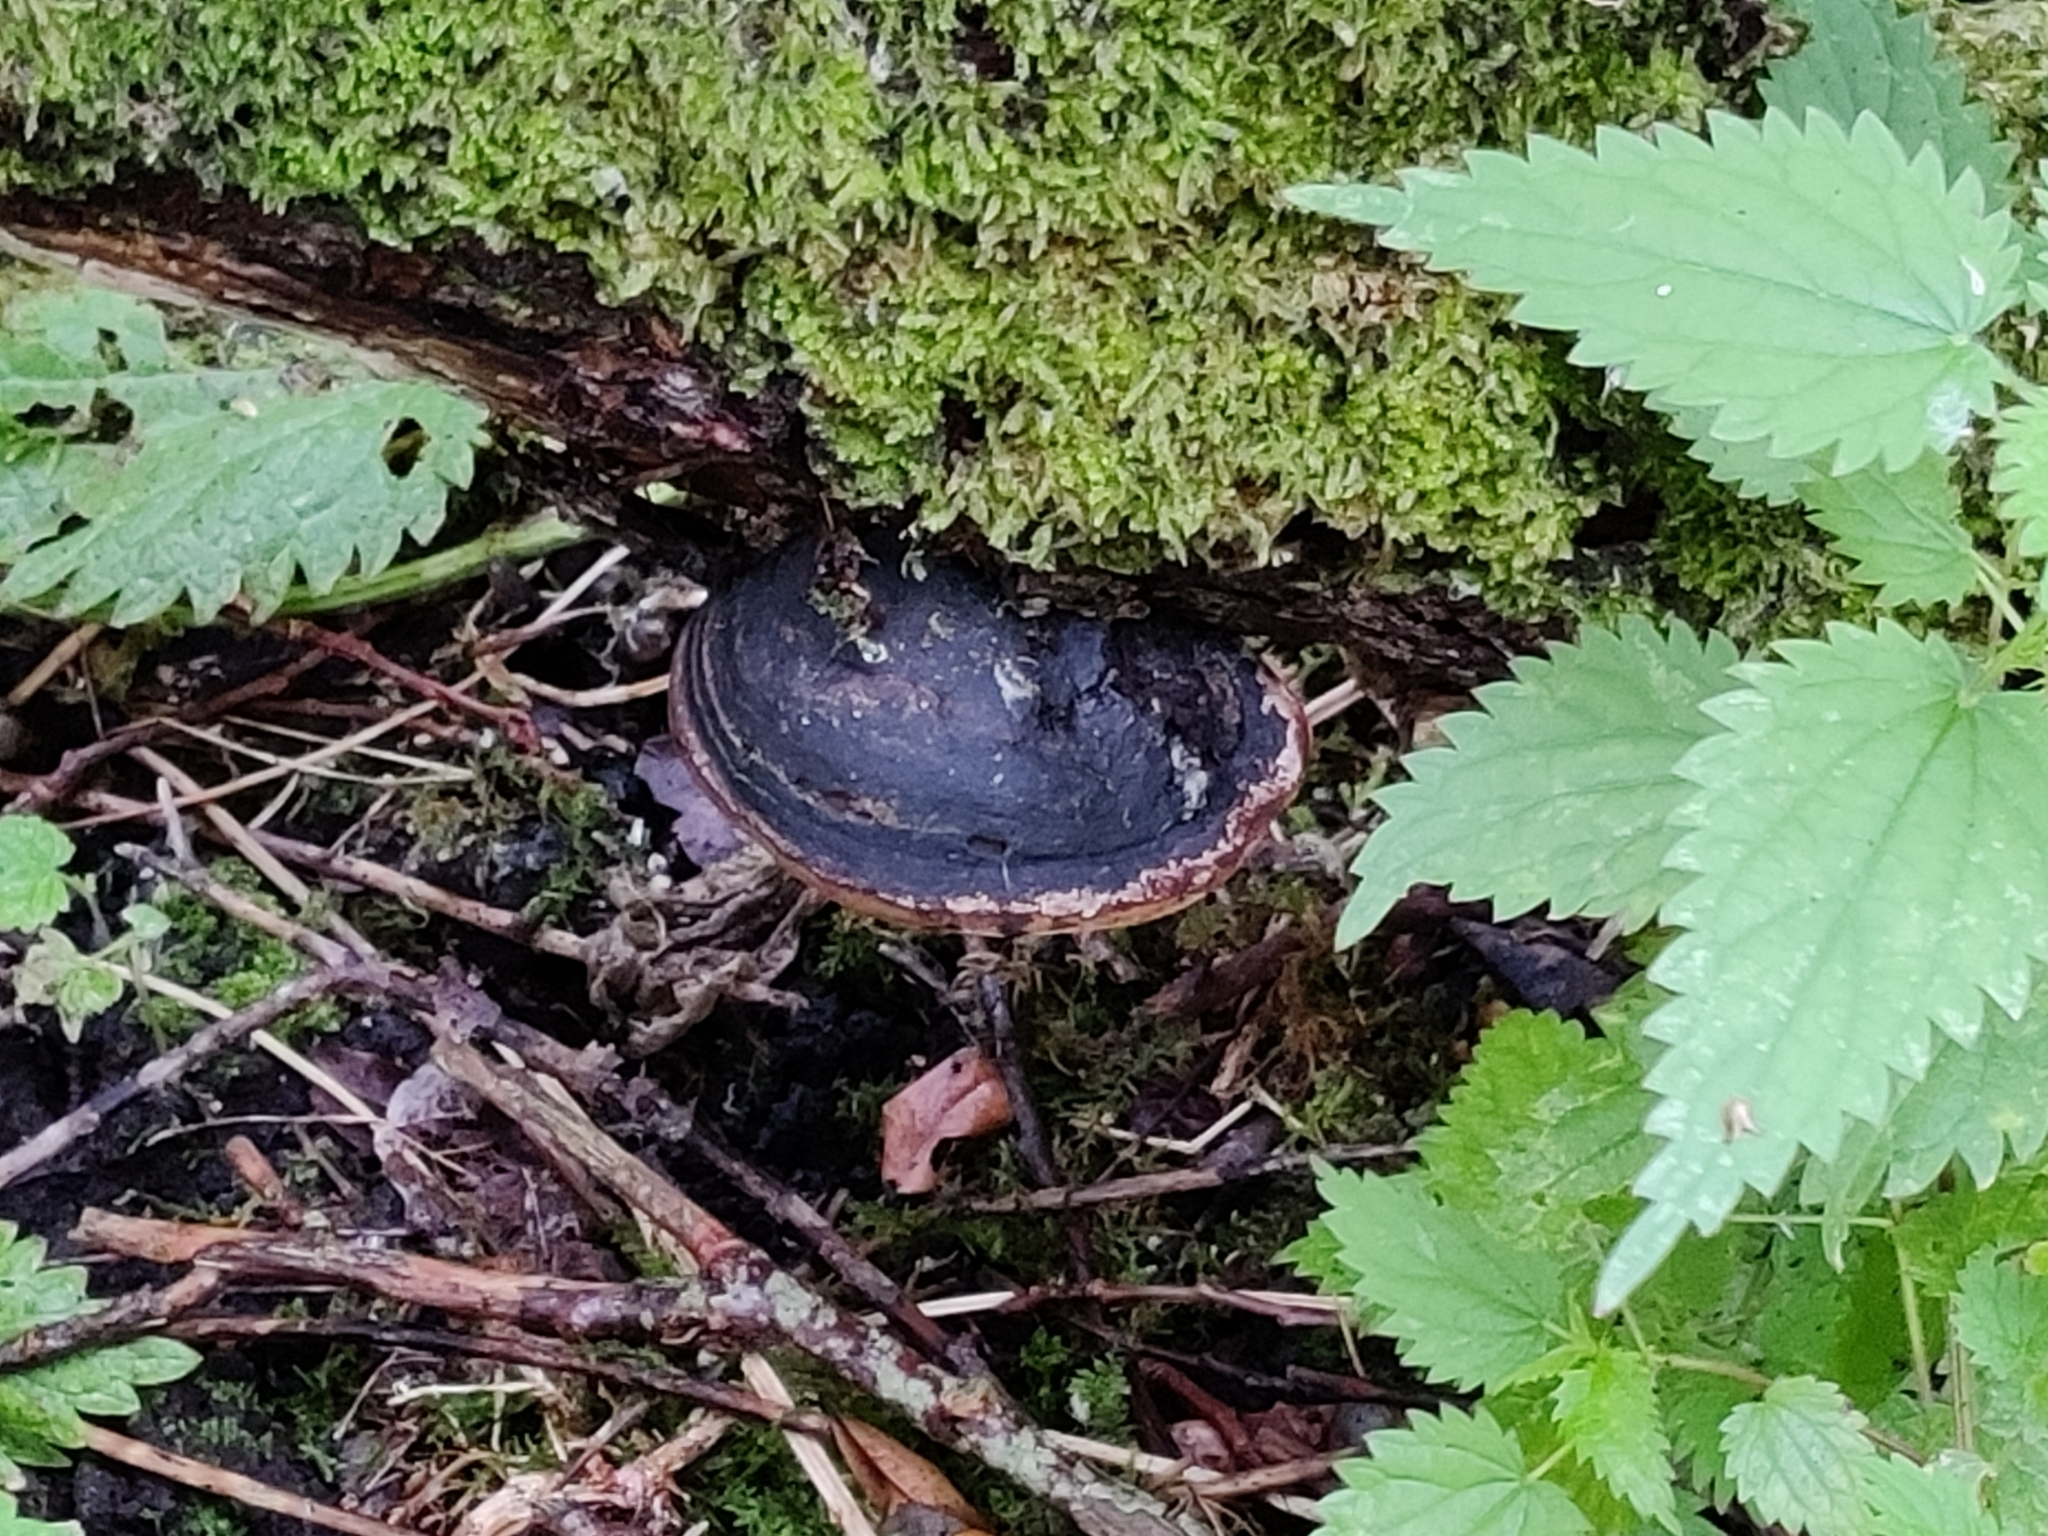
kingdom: Fungi
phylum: Basidiomycota
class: Agaricomycetes
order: Hymenochaetales
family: Hymenochaetaceae
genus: Phellinus
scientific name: Phellinus igniarius
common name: Willow bracket
